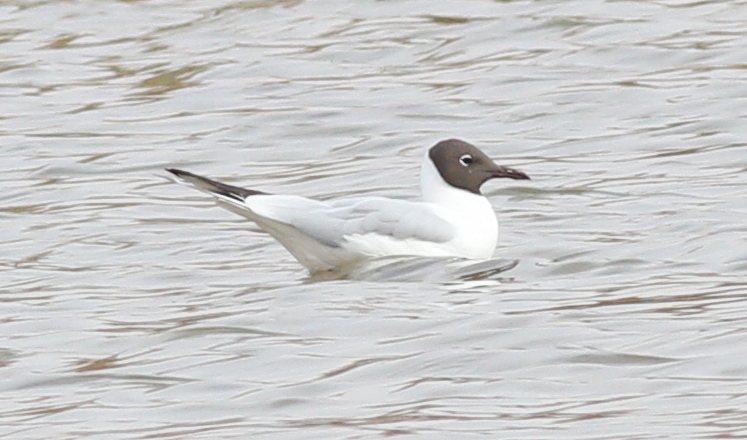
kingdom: Animalia
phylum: Chordata
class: Aves
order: Charadriiformes
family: Laridae
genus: Chroicocephalus
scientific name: Chroicocephalus ridibundus
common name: Black-headed gull
